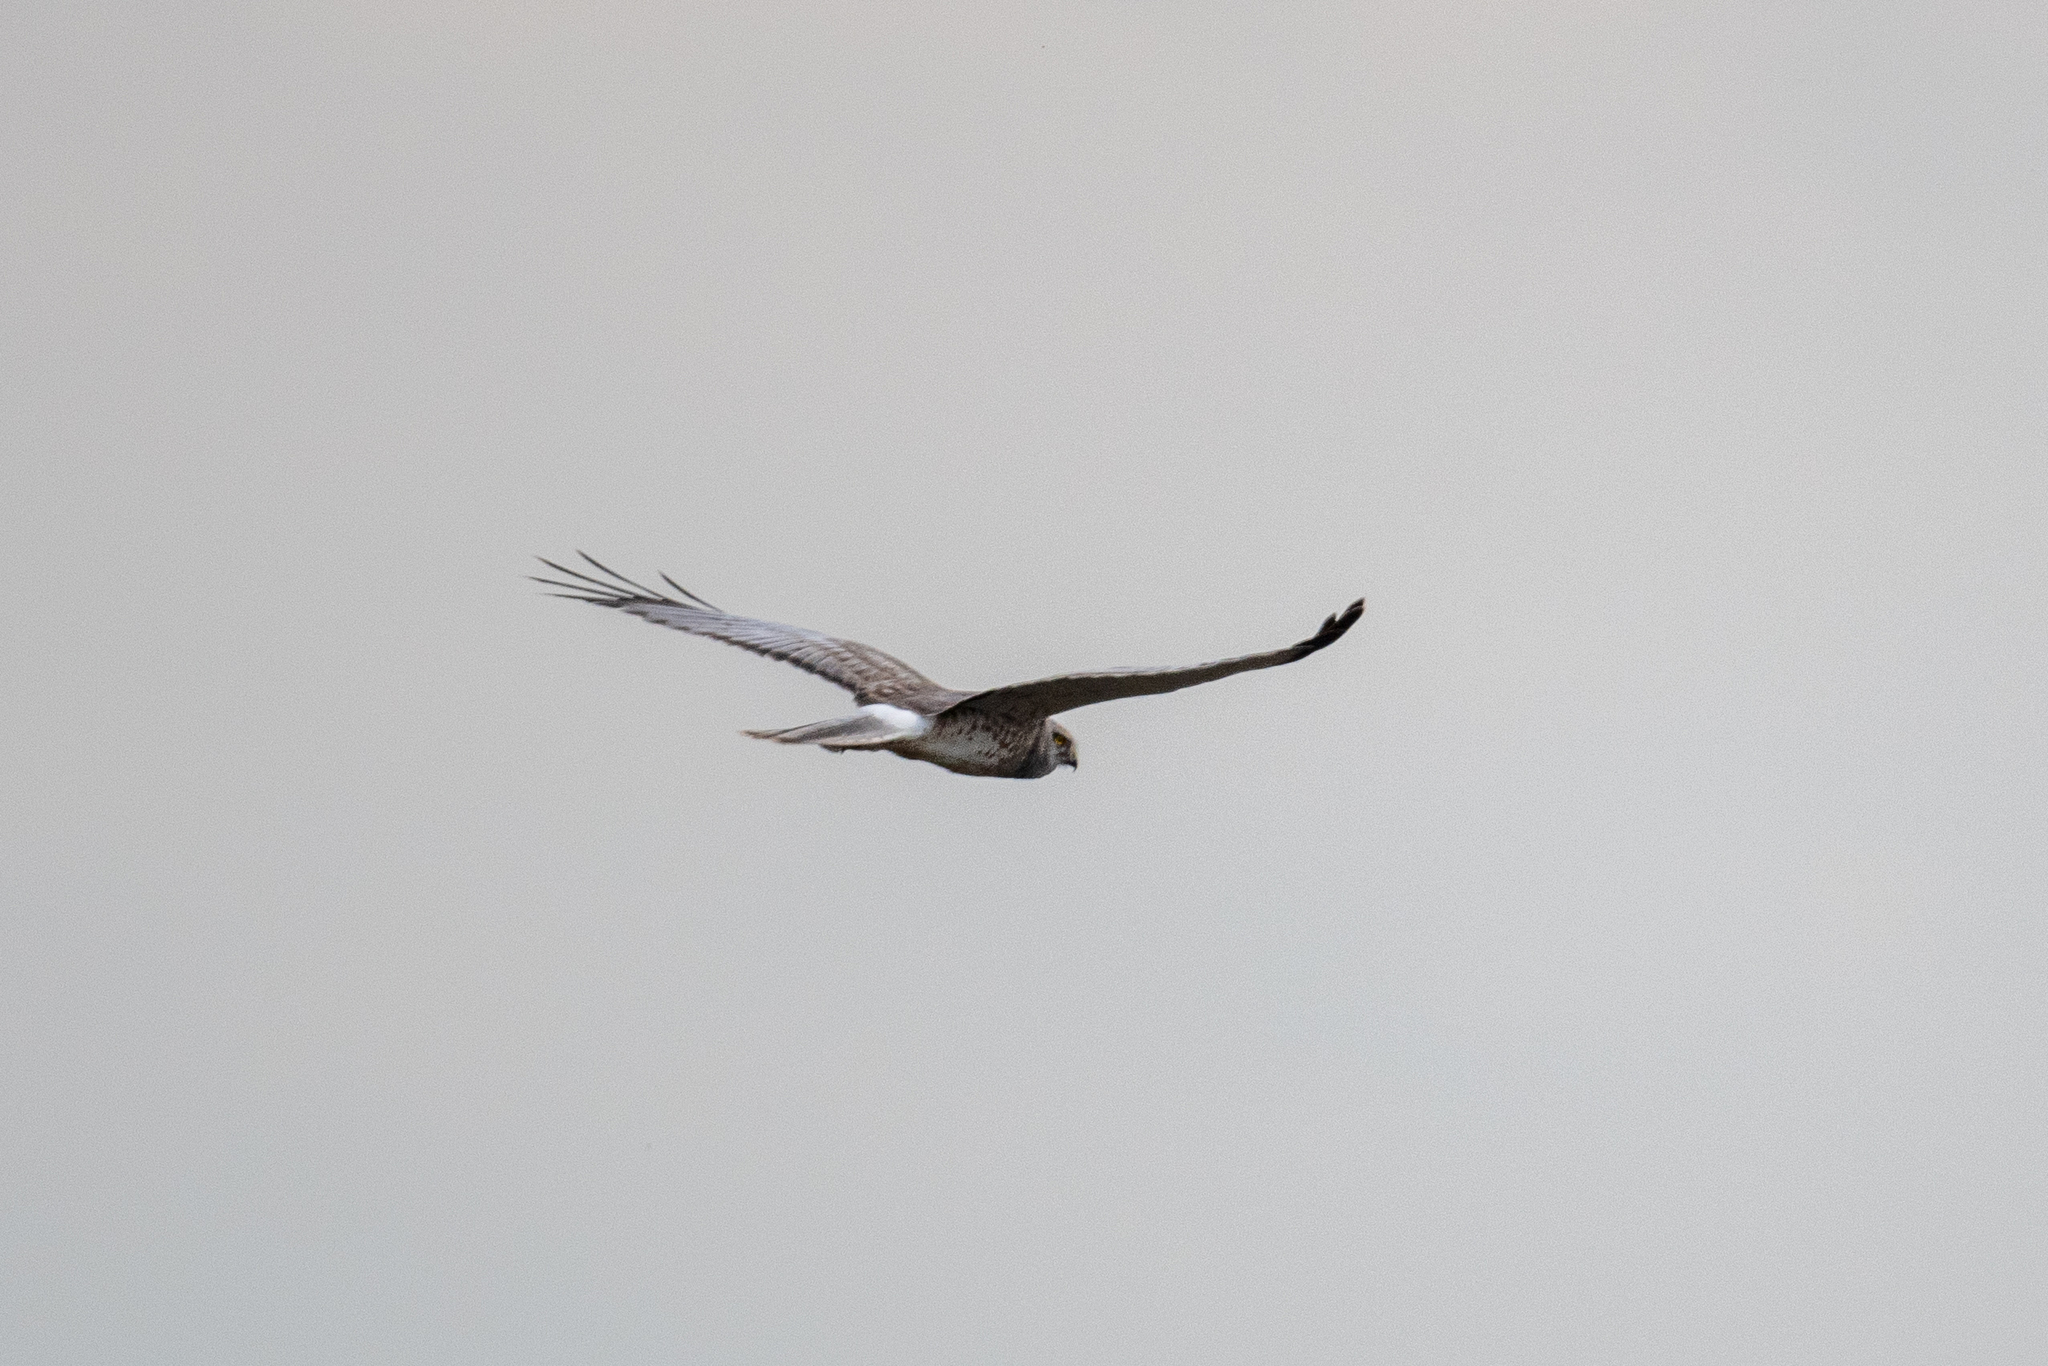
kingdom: Animalia
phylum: Chordata
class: Aves
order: Accipitriformes
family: Accipitridae
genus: Circus
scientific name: Circus cyaneus
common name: Hen harrier
